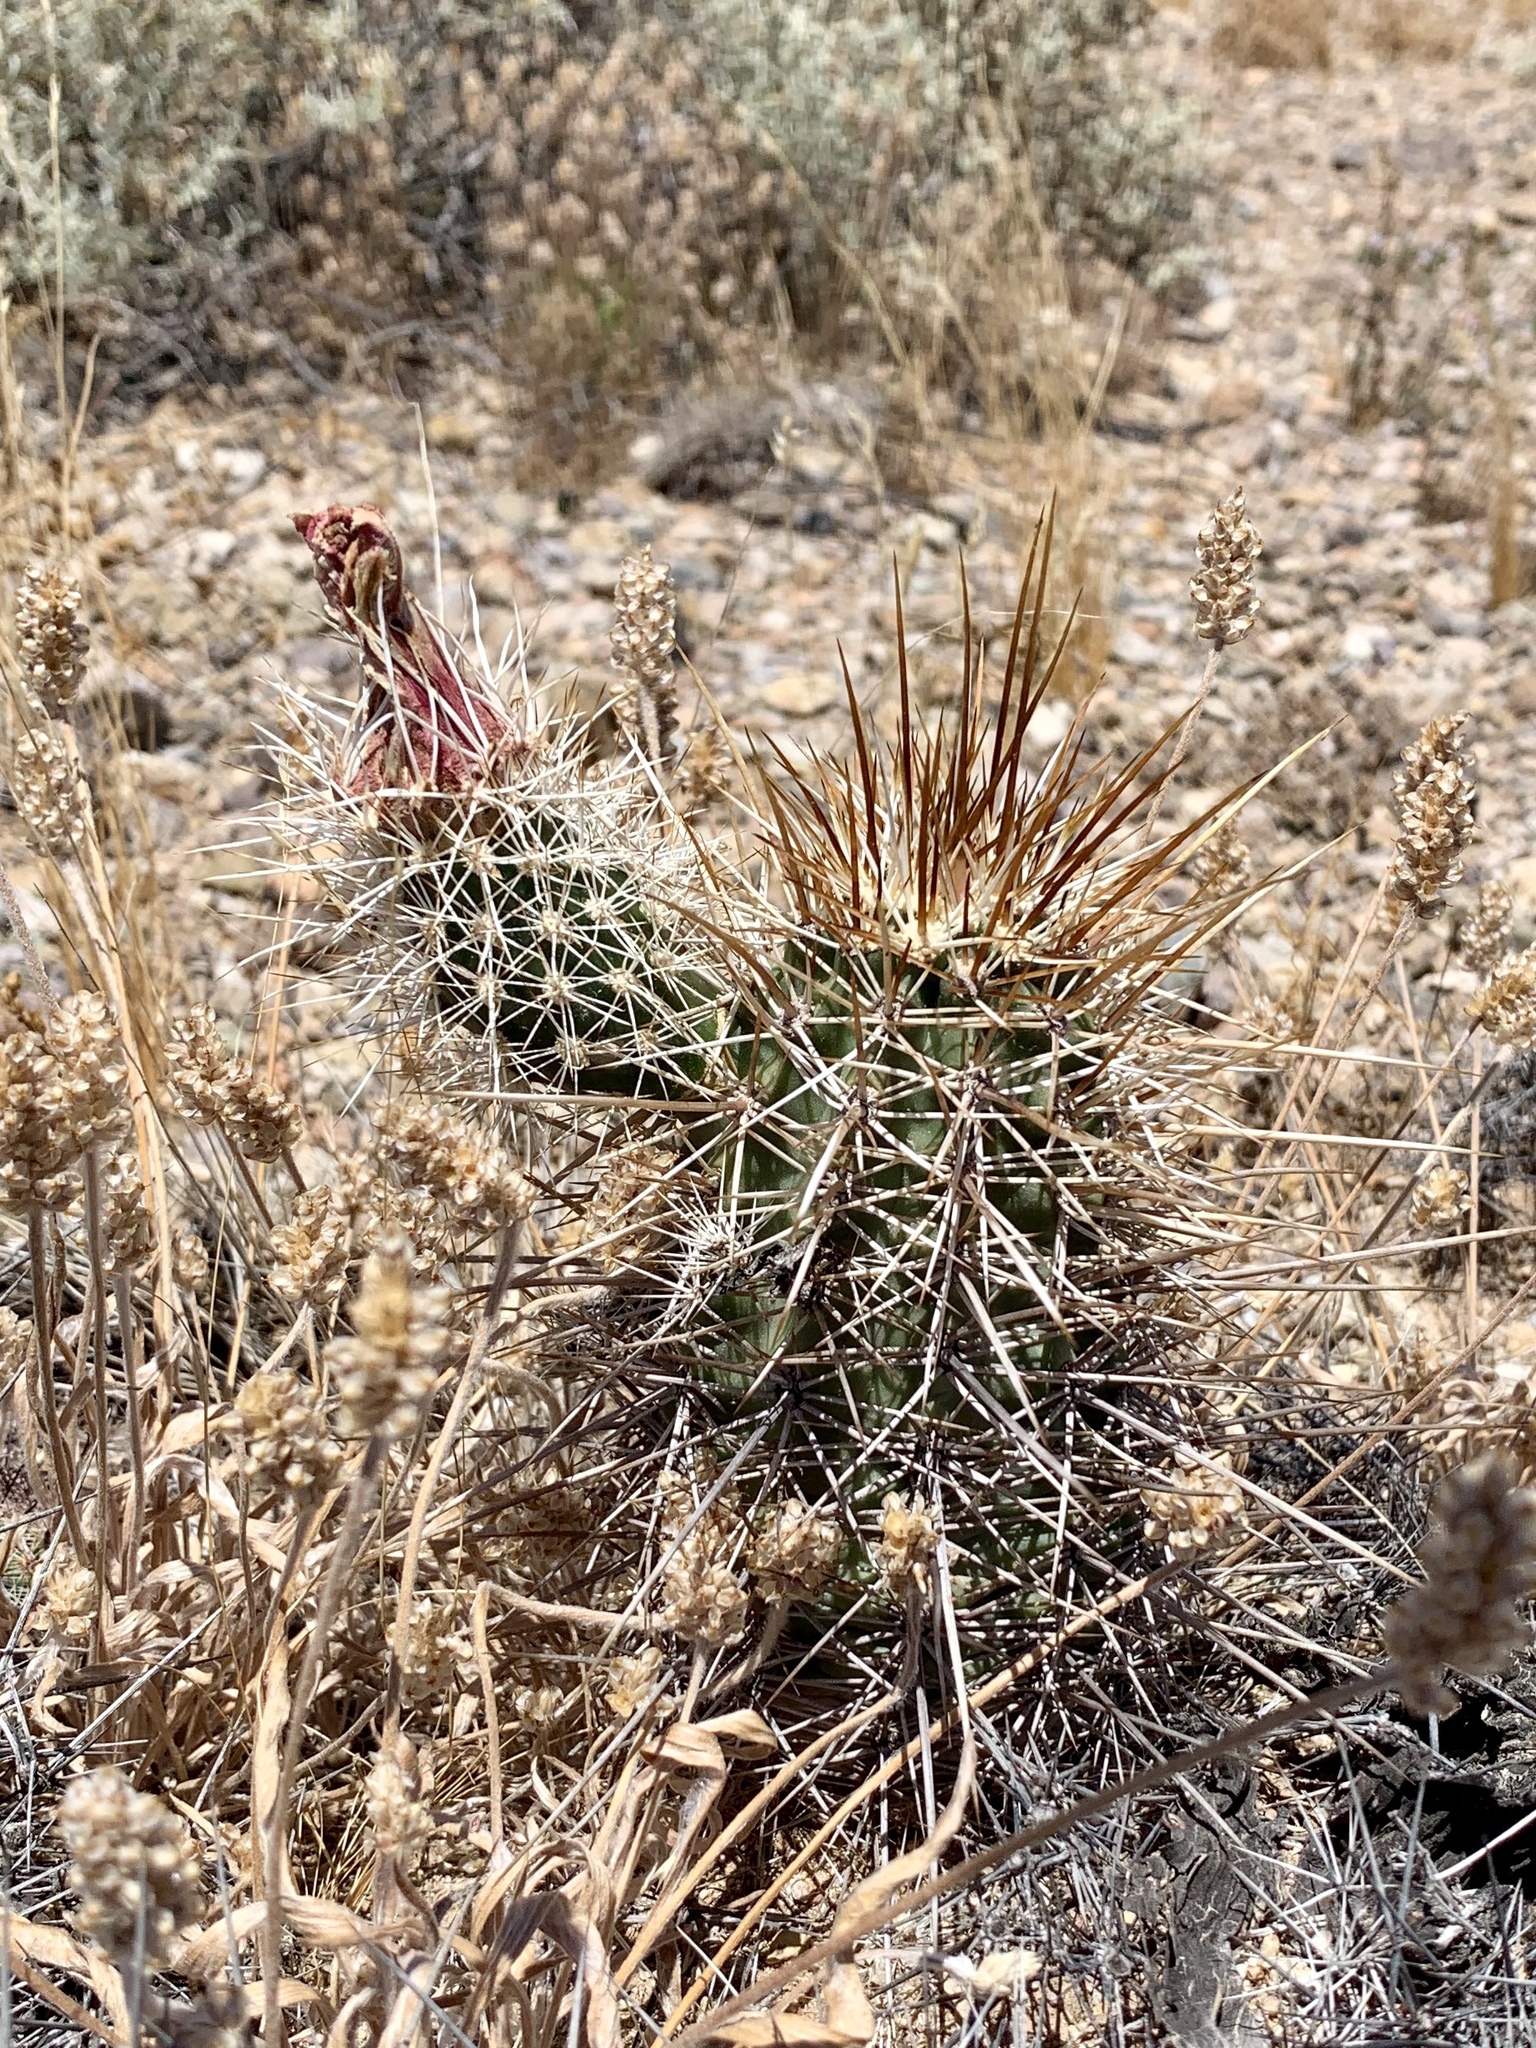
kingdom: Plantae
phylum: Tracheophyta
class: Magnoliopsida
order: Caryophyllales
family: Cactaceae
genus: Echinocereus
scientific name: Echinocereus fasciculatus
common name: Bundle hedgehog
